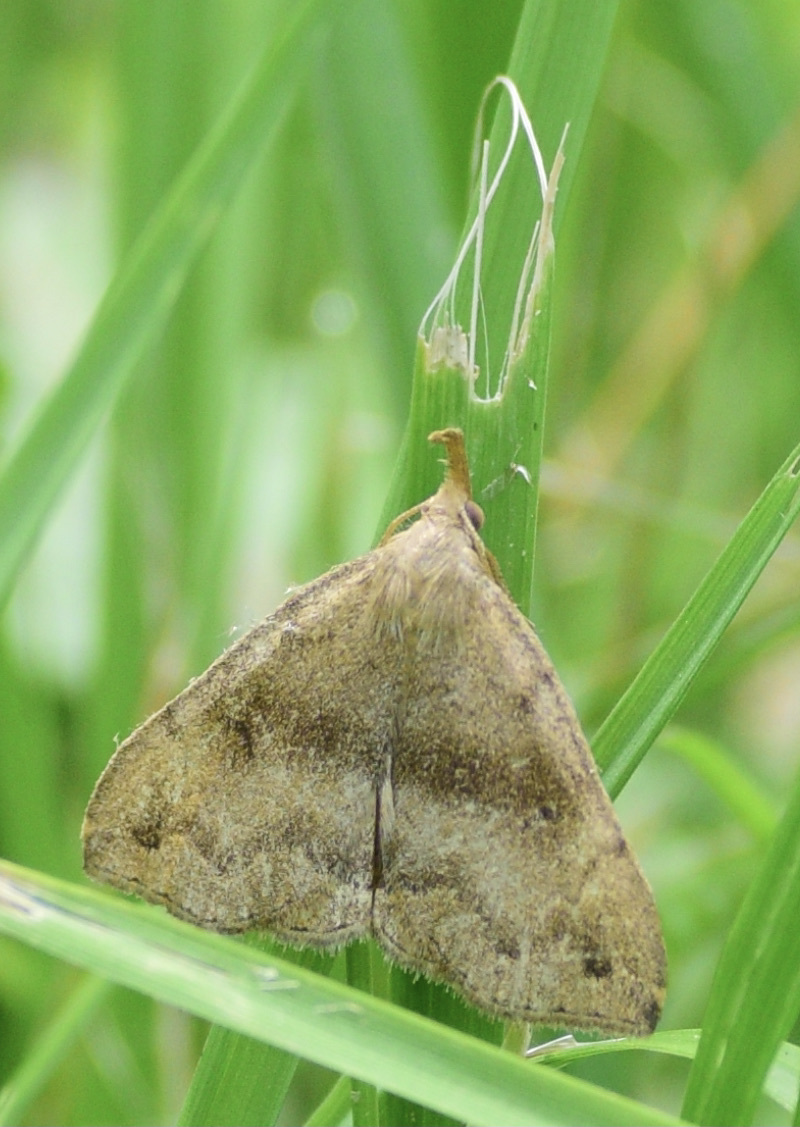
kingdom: Animalia
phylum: Arthropoda
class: Insecta
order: Lepidoptera
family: Erebidae
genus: Phalaenostola
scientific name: Phalaenostola eumelusalis
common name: Dark phalaenostola moth
